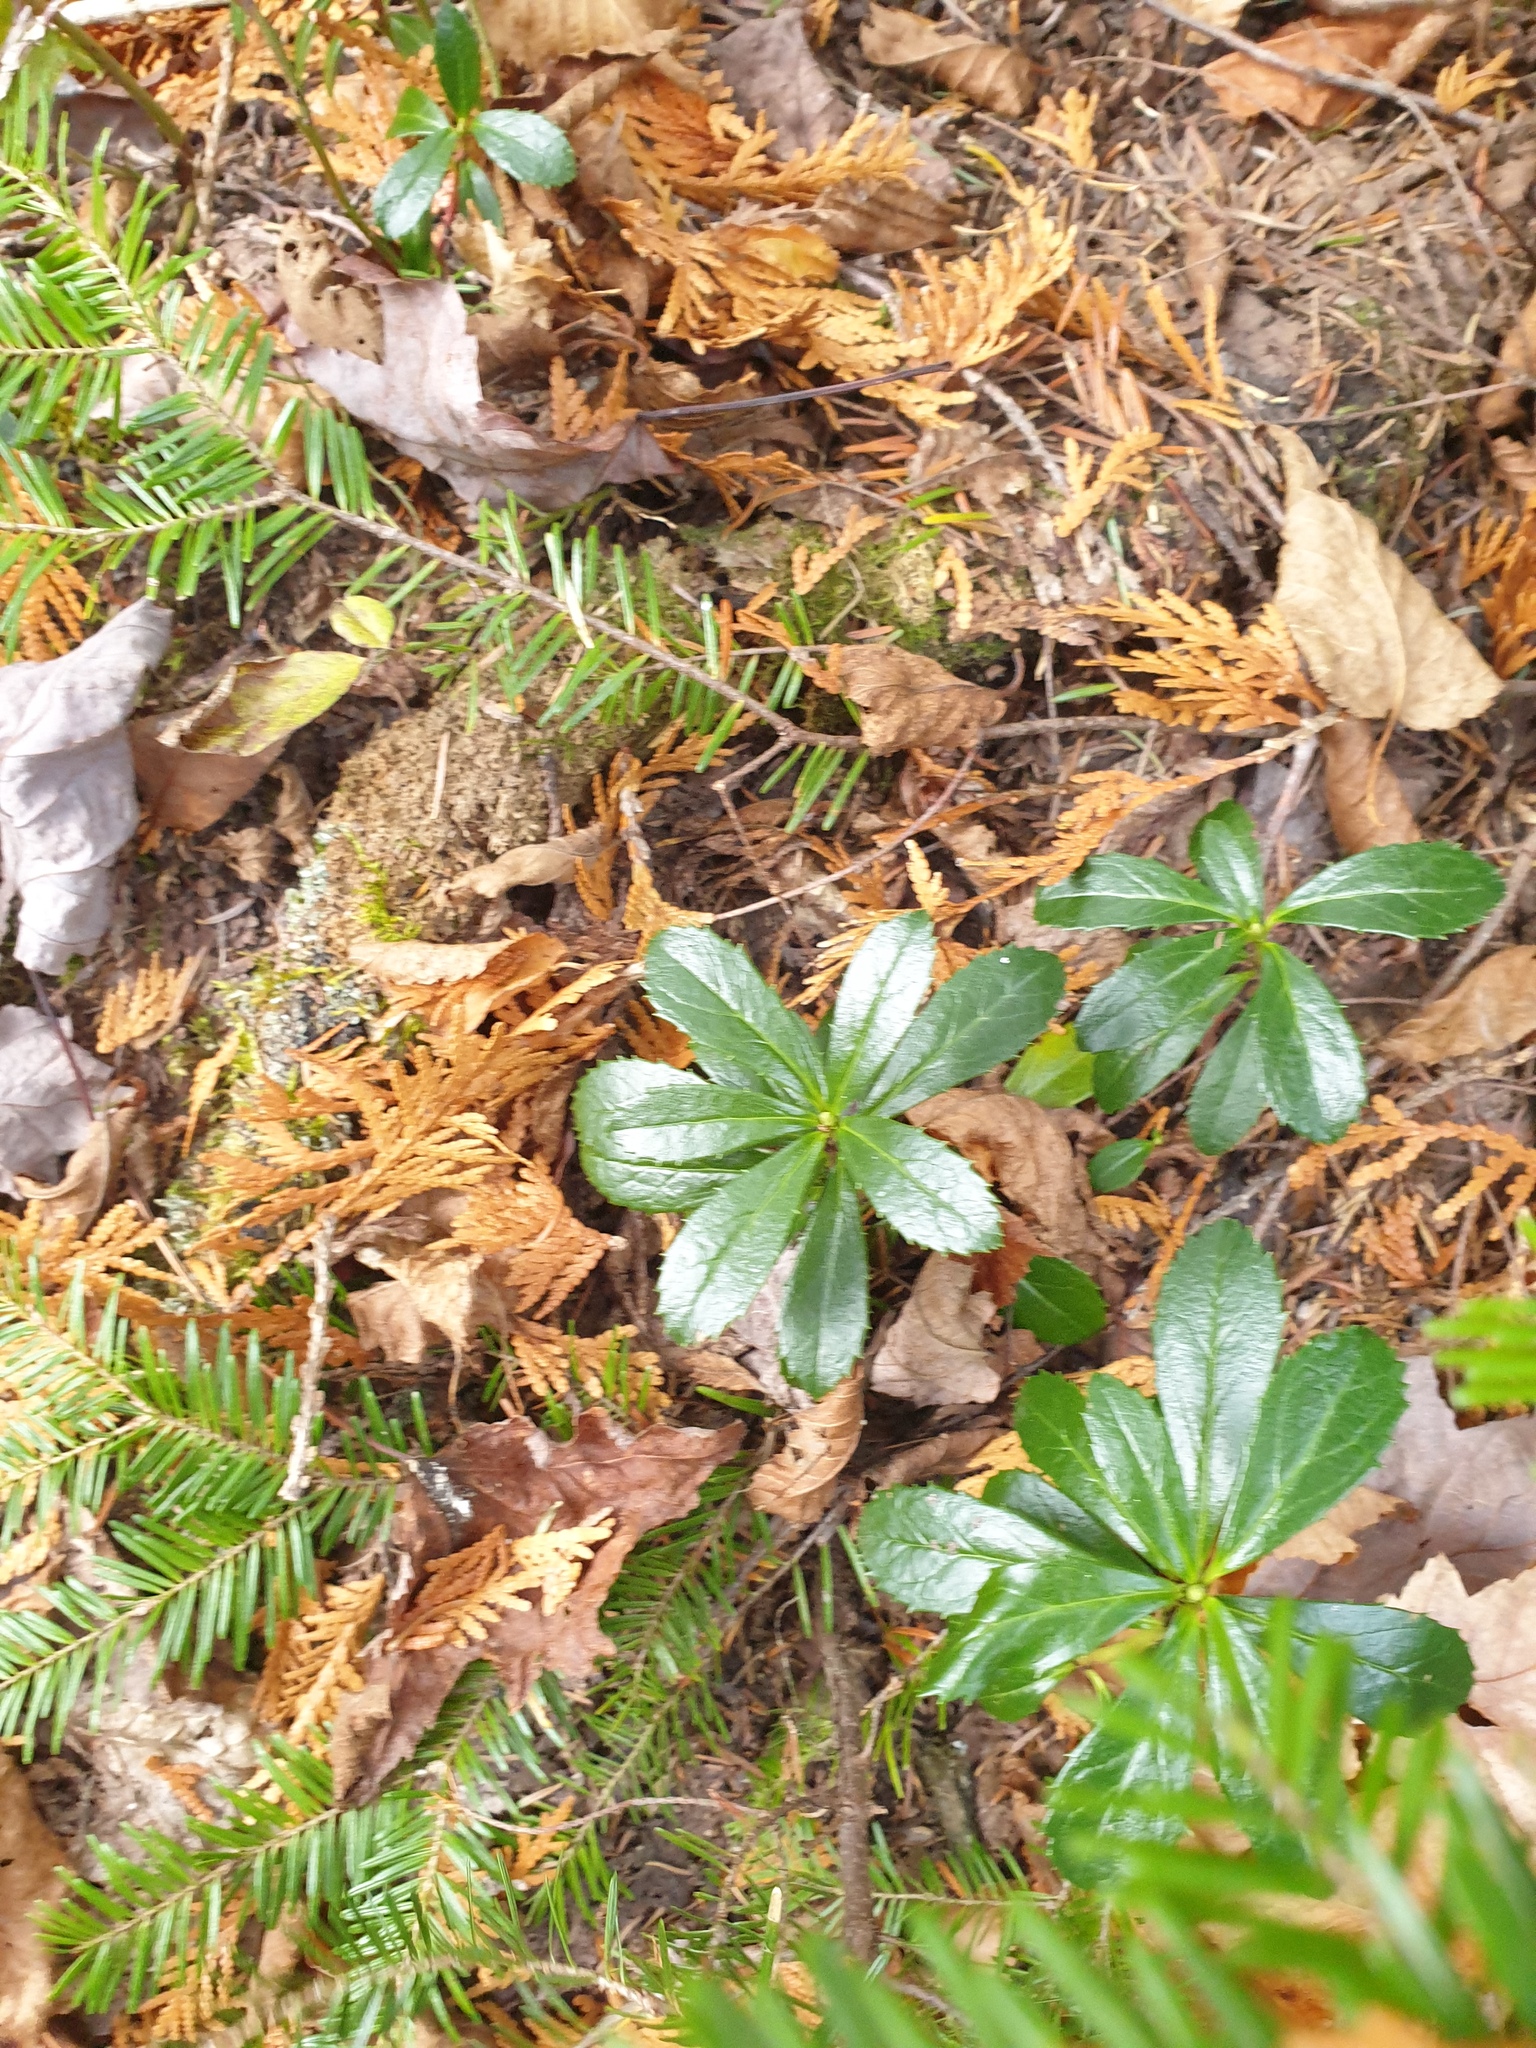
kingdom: Plantae
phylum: Tracheophyta
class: Magnoliopsida
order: Ericales
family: Ericaceae
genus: Chimaphila
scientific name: Chimaphila umbellata
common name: Pipsissewa
